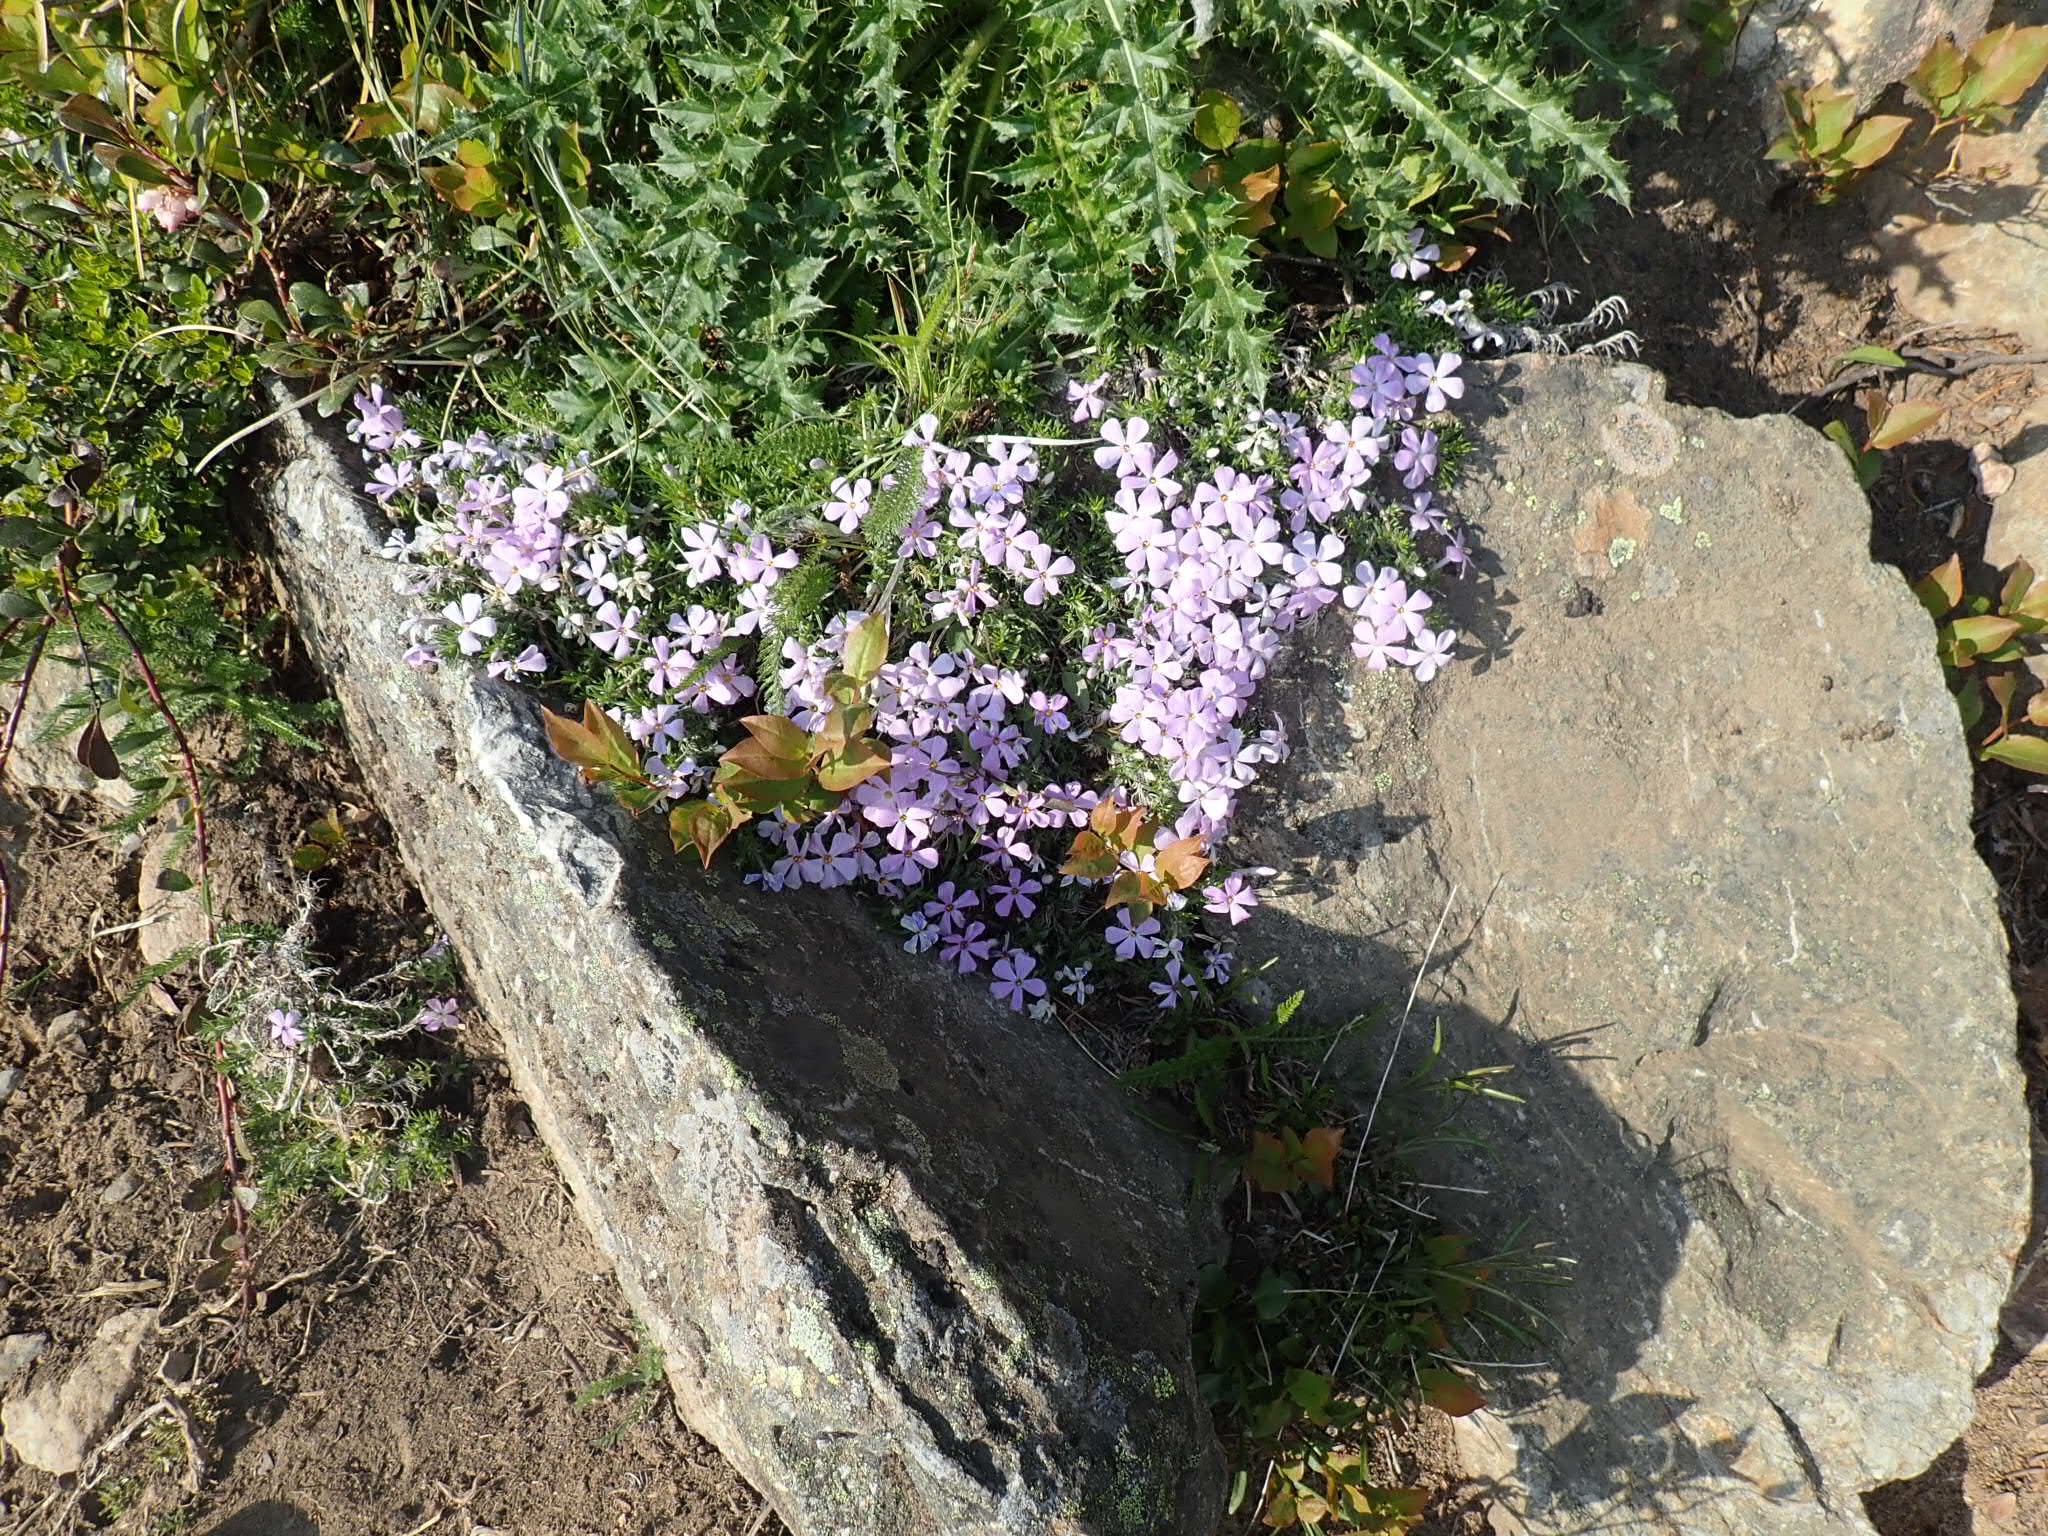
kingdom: Plantae
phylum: Tracheophyta
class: Magnoliopsida
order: Ericales
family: Polemoniaceae
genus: Phlox
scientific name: Phlox diffusa
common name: Mat phlox
